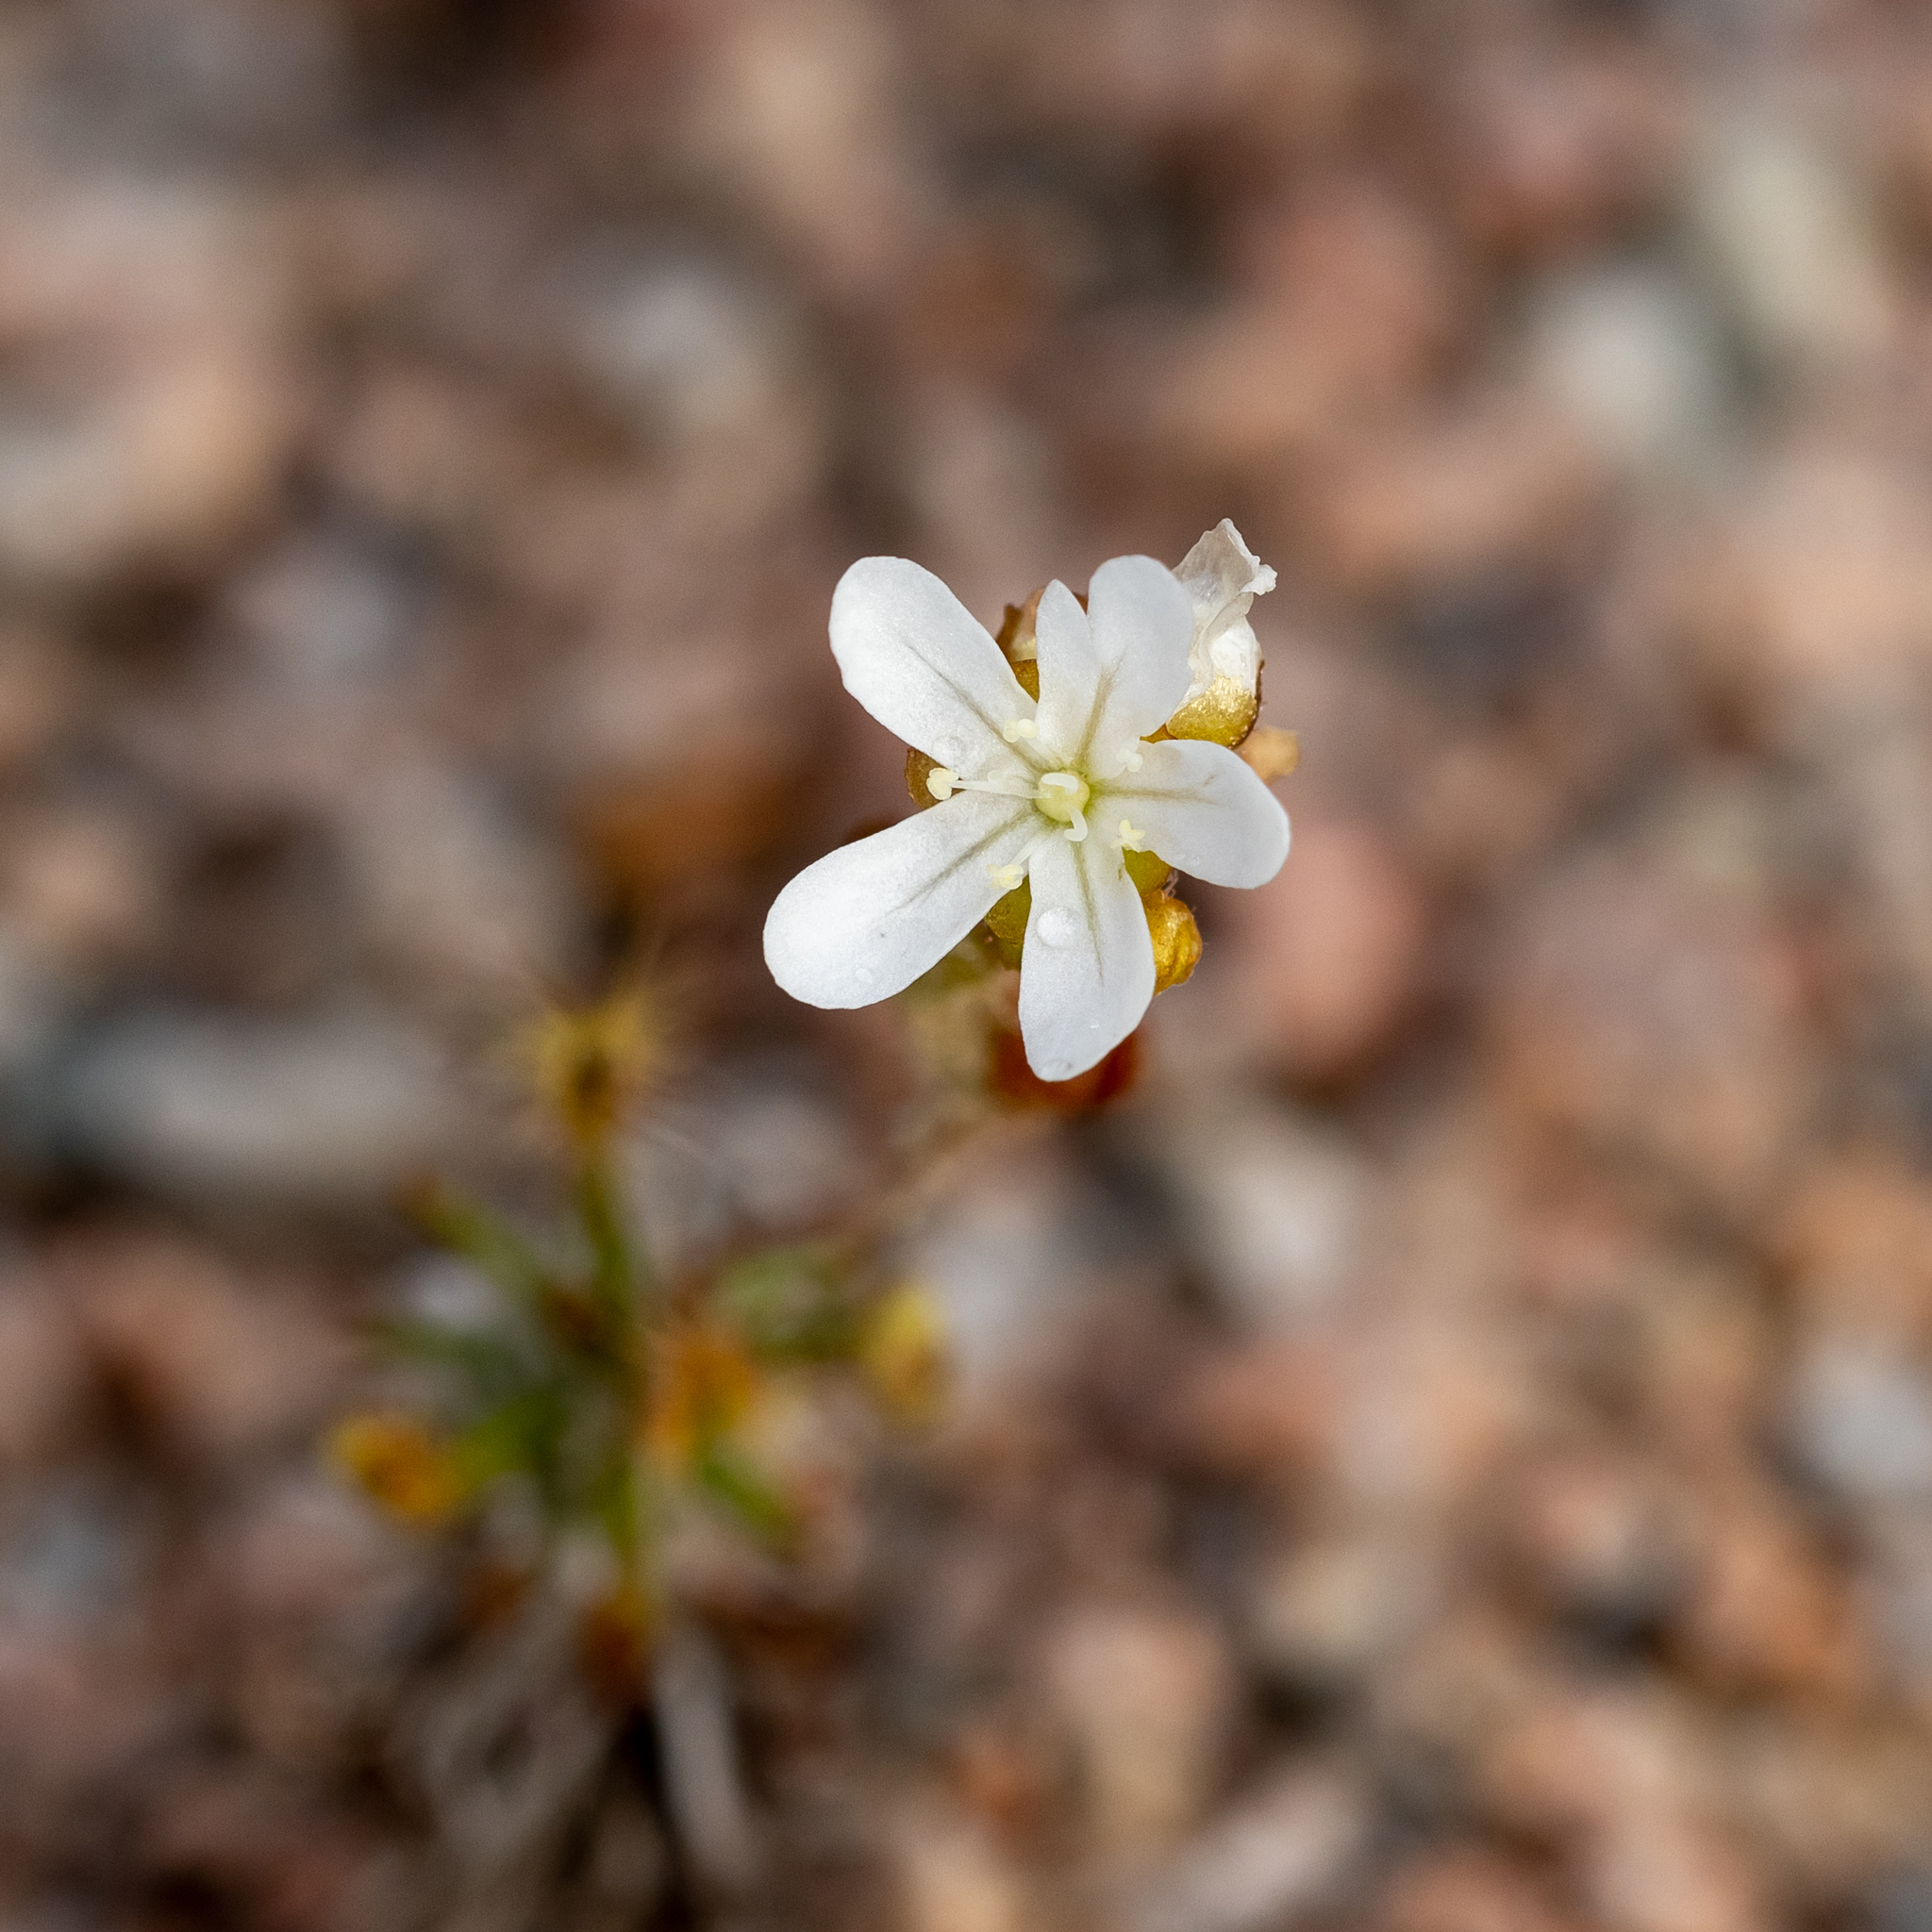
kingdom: Plantae
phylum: Tracheophyta
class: Magnoliopsida
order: Caryophyllales
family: Droseraceae
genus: Drosera
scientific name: Drosera scorpioides
